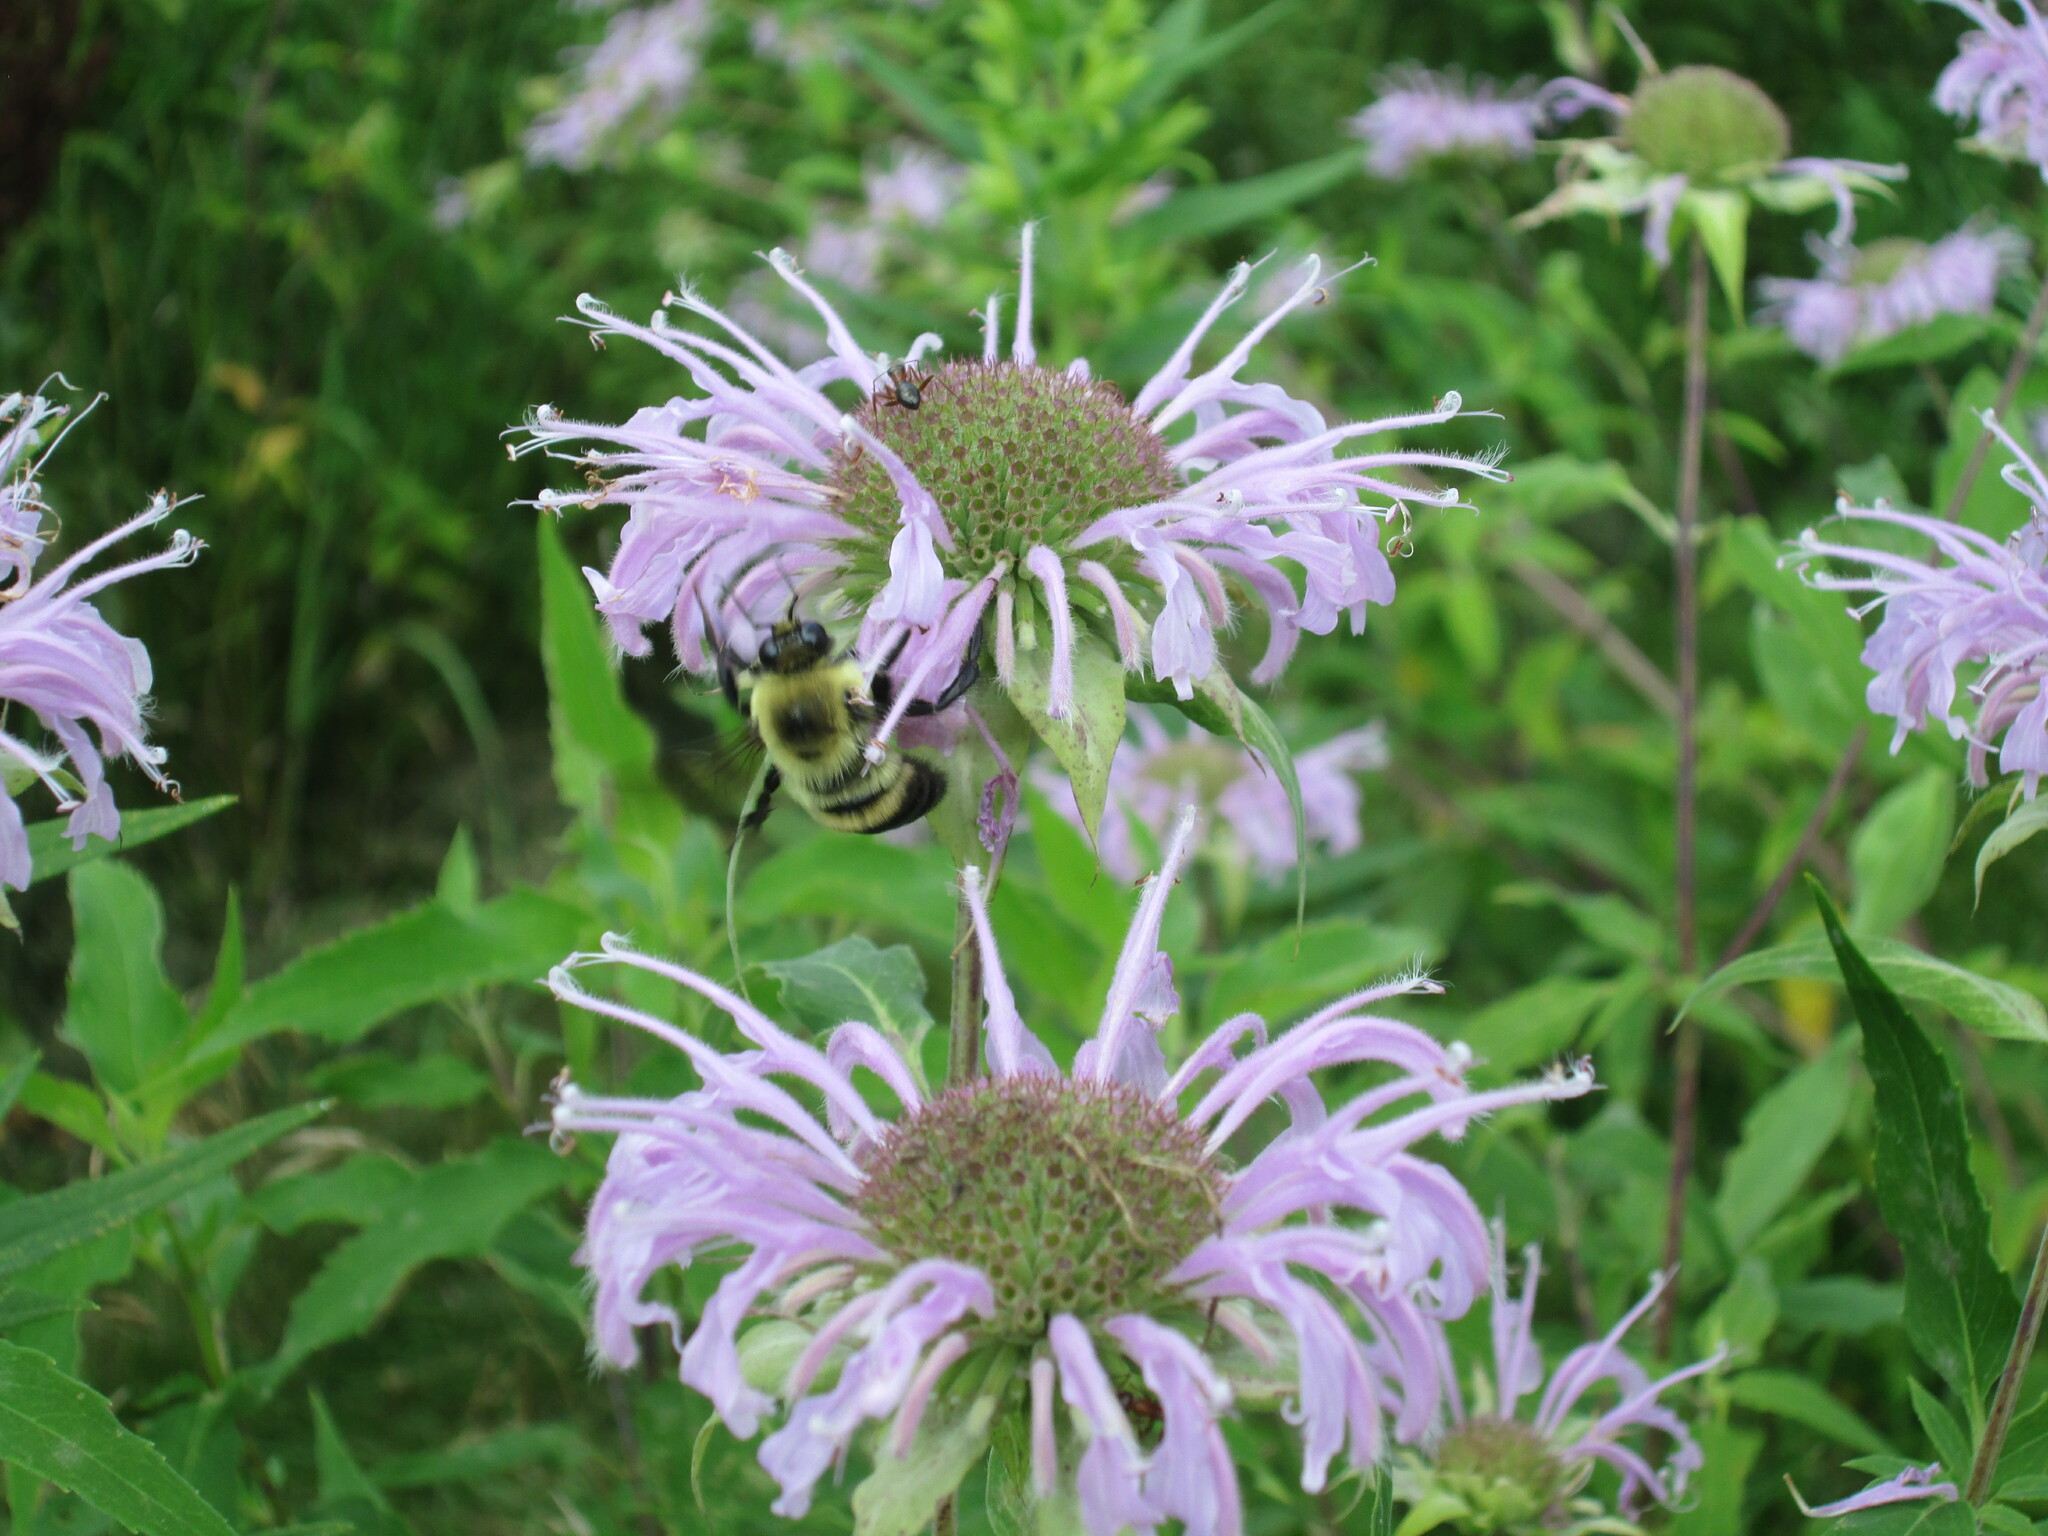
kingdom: Animalia
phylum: Arthropoda
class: Insecta
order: Hymenoptera
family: Apidae
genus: Bombus
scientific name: Bombus griseocollis
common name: Brown-belted bumble bee
